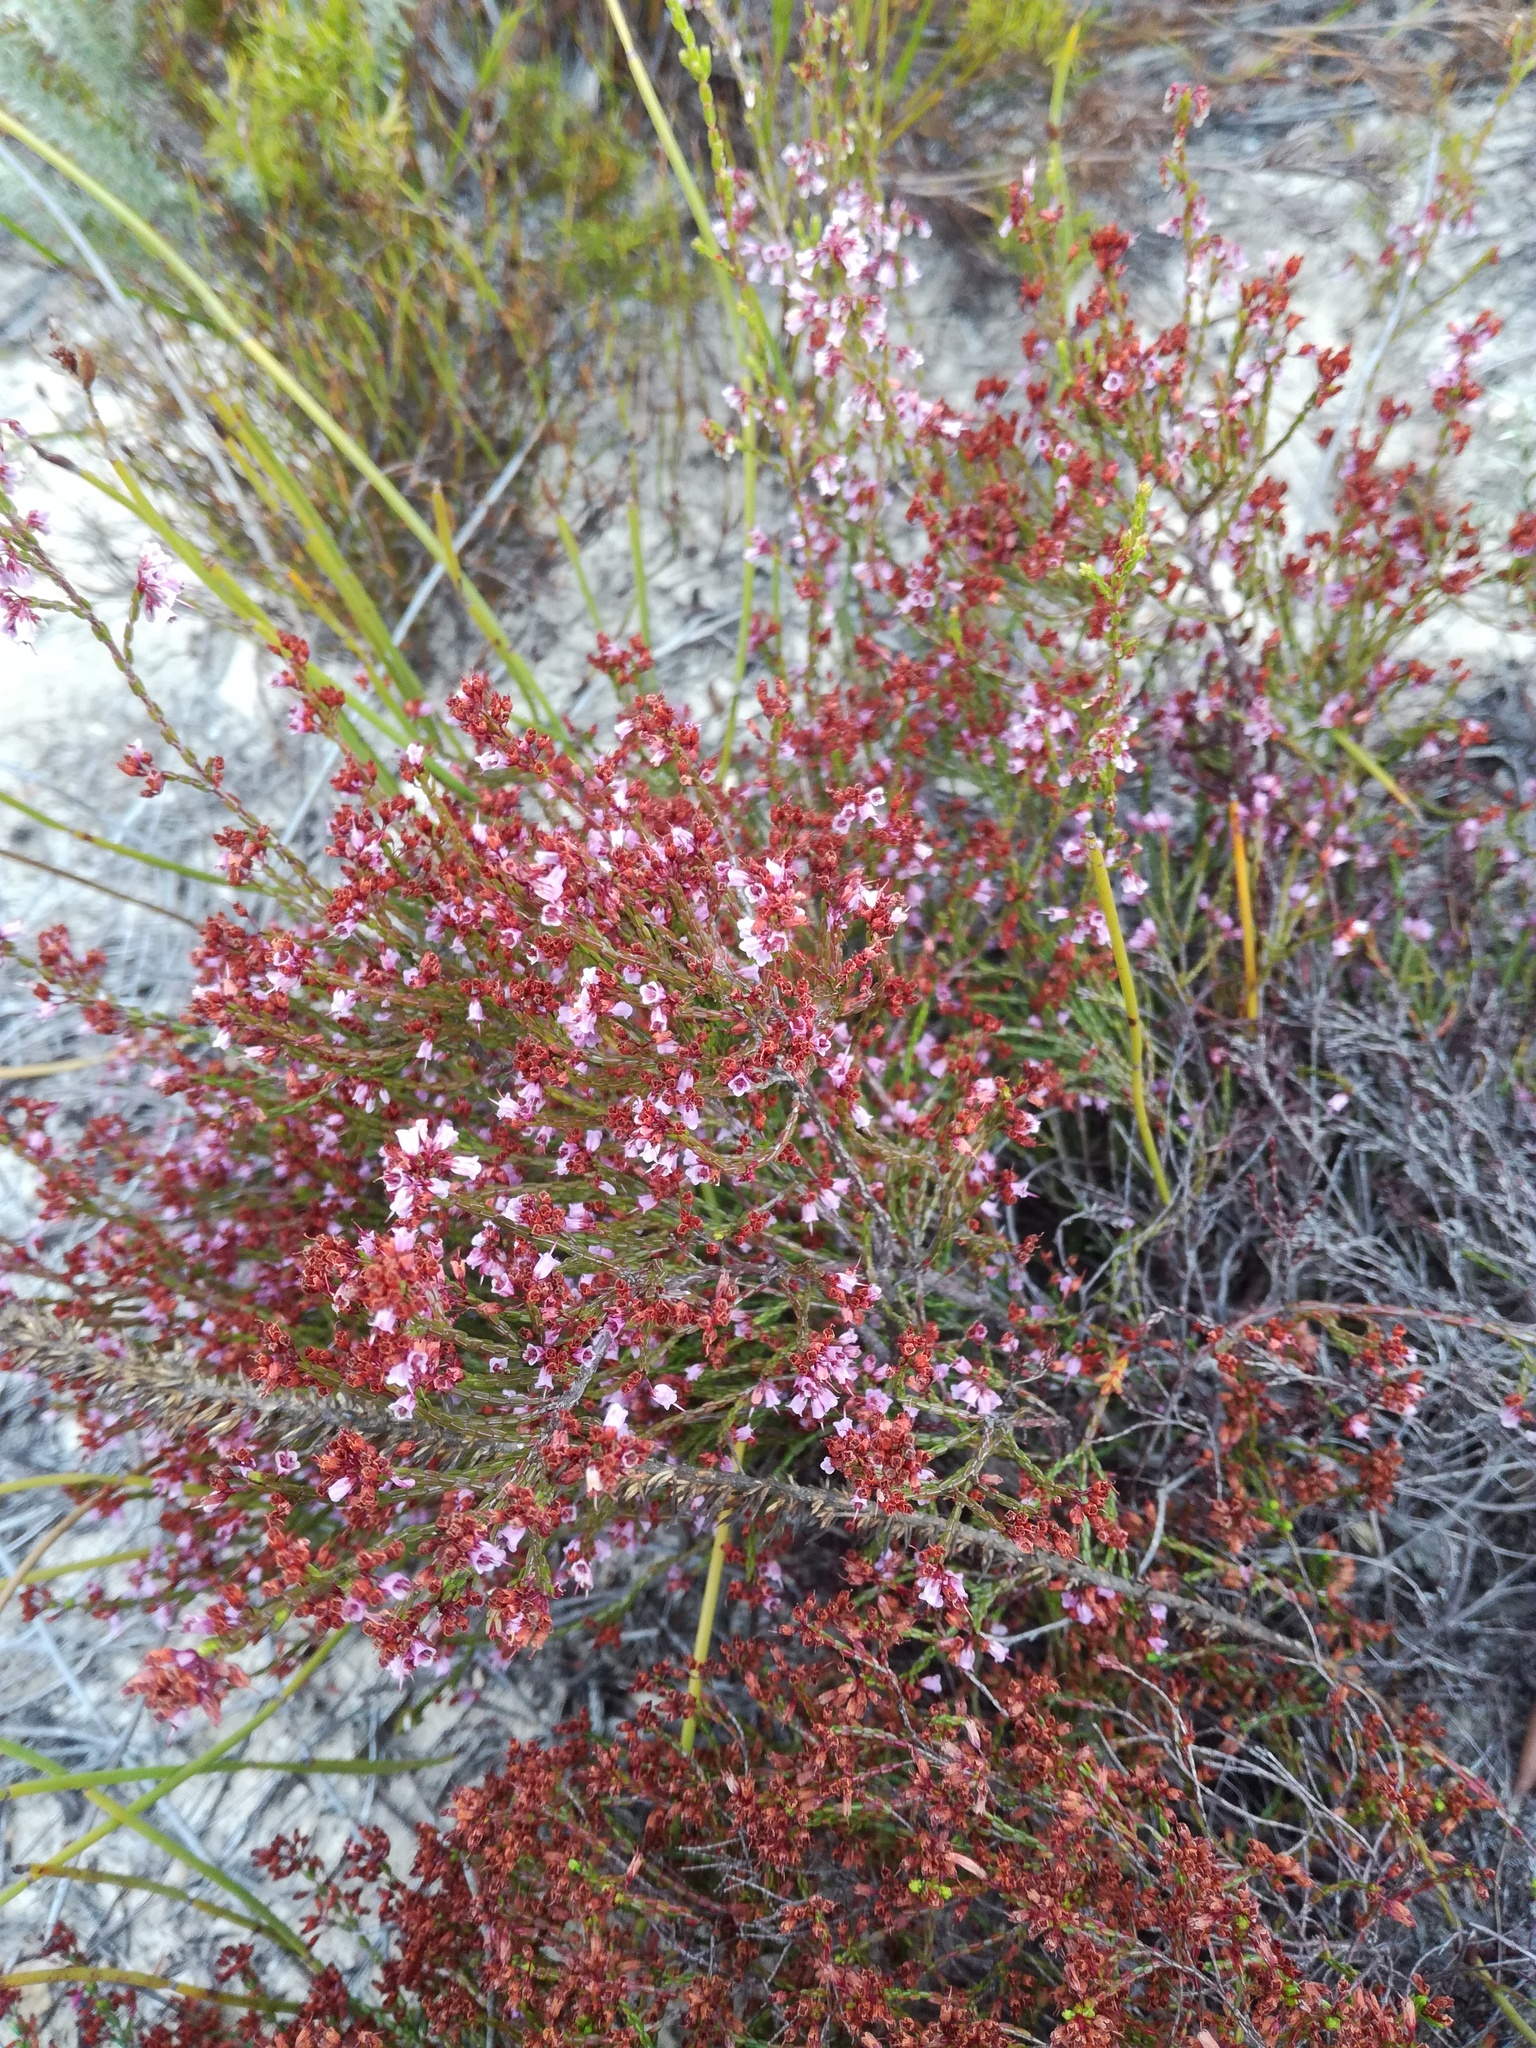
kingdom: Plantae
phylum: Tracheophyta
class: Magnoliopsida
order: Ericales
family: Ericaceae
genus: Erica
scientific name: Erica equisetifolia
